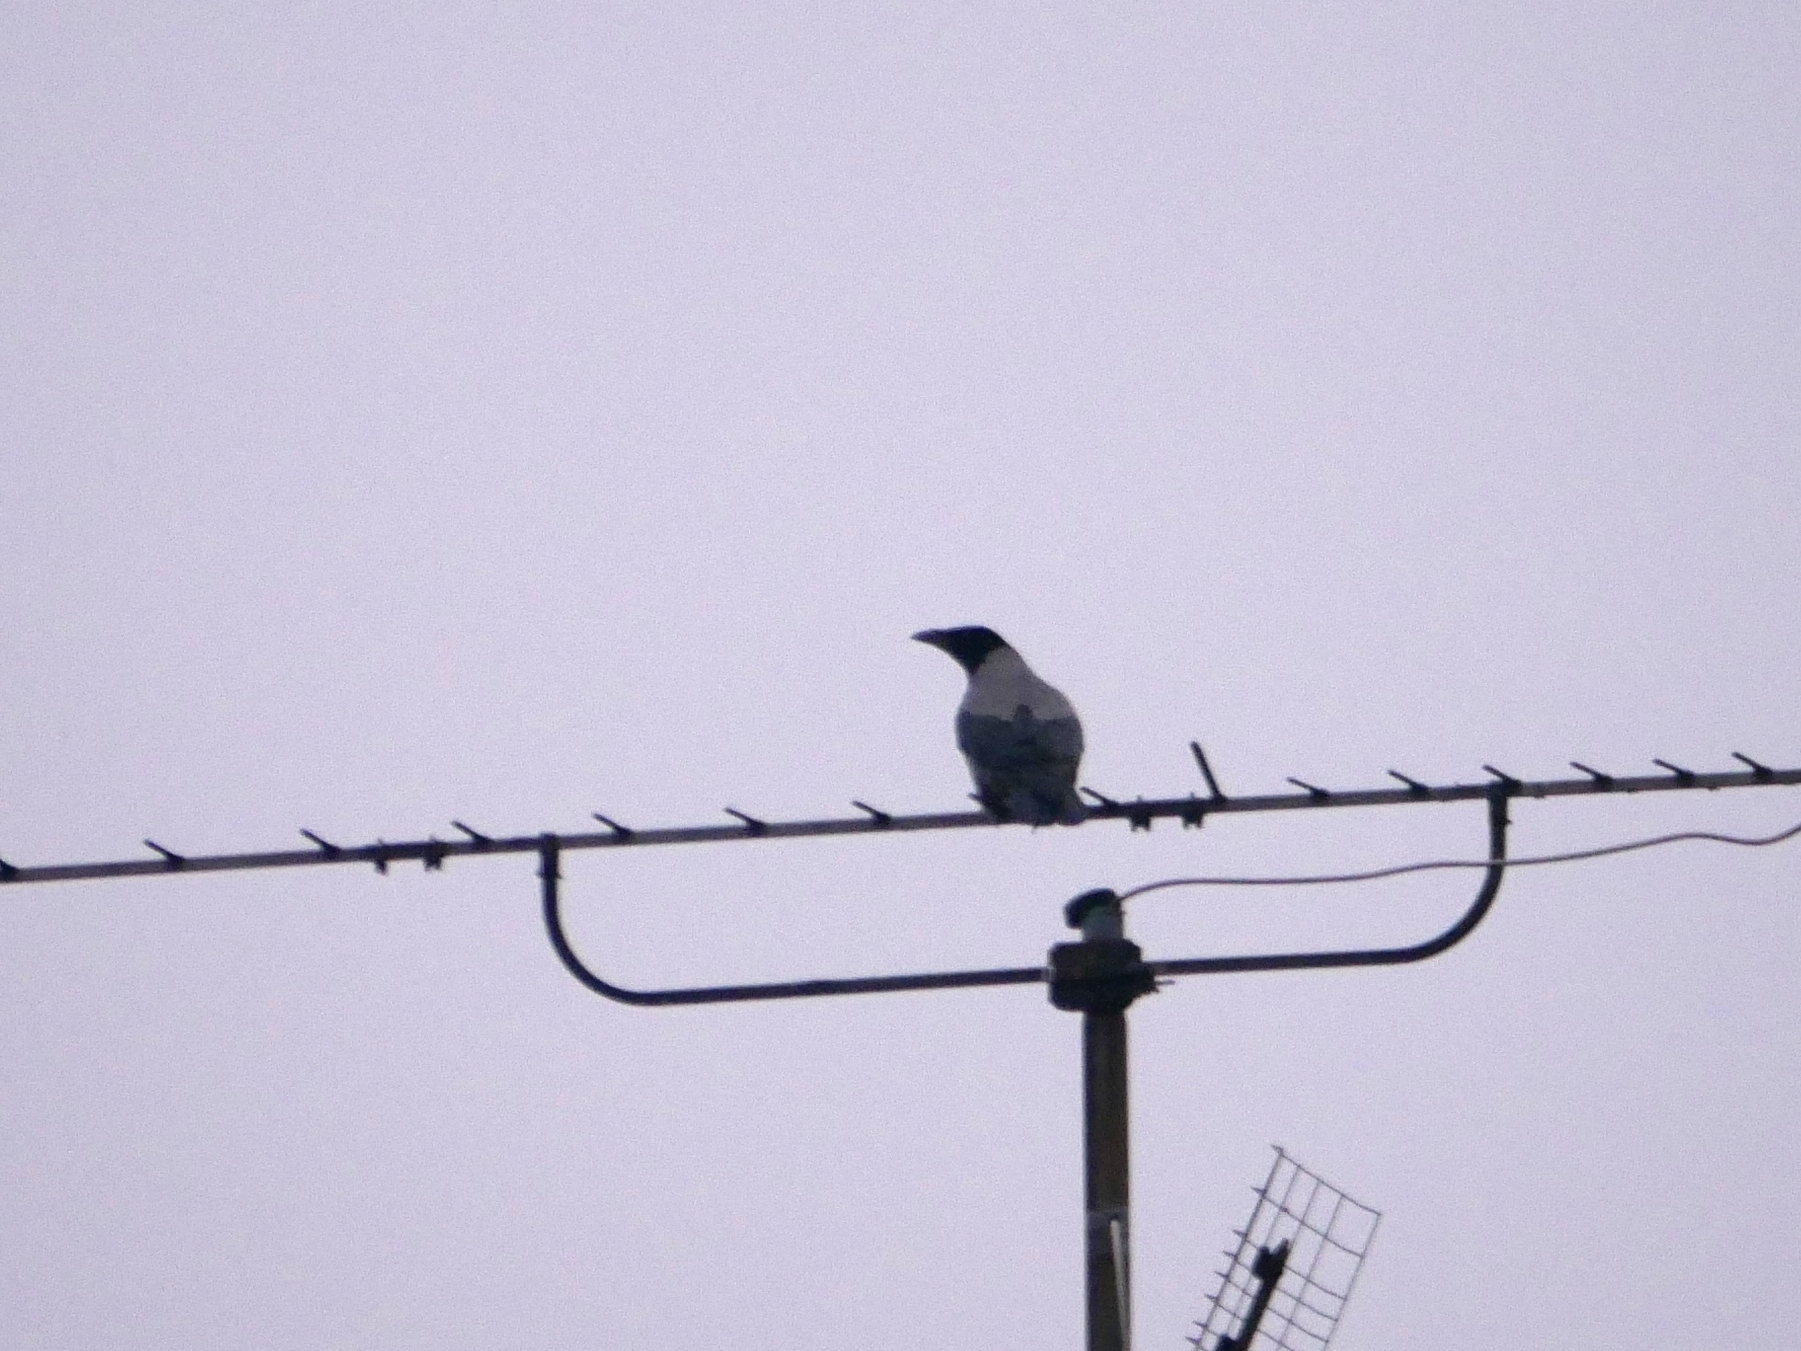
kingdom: Animalia
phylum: Chordata
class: Aves
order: Passeriformes
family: Corvidae
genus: Corvus
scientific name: Corvus cornix
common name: Hooded crow
